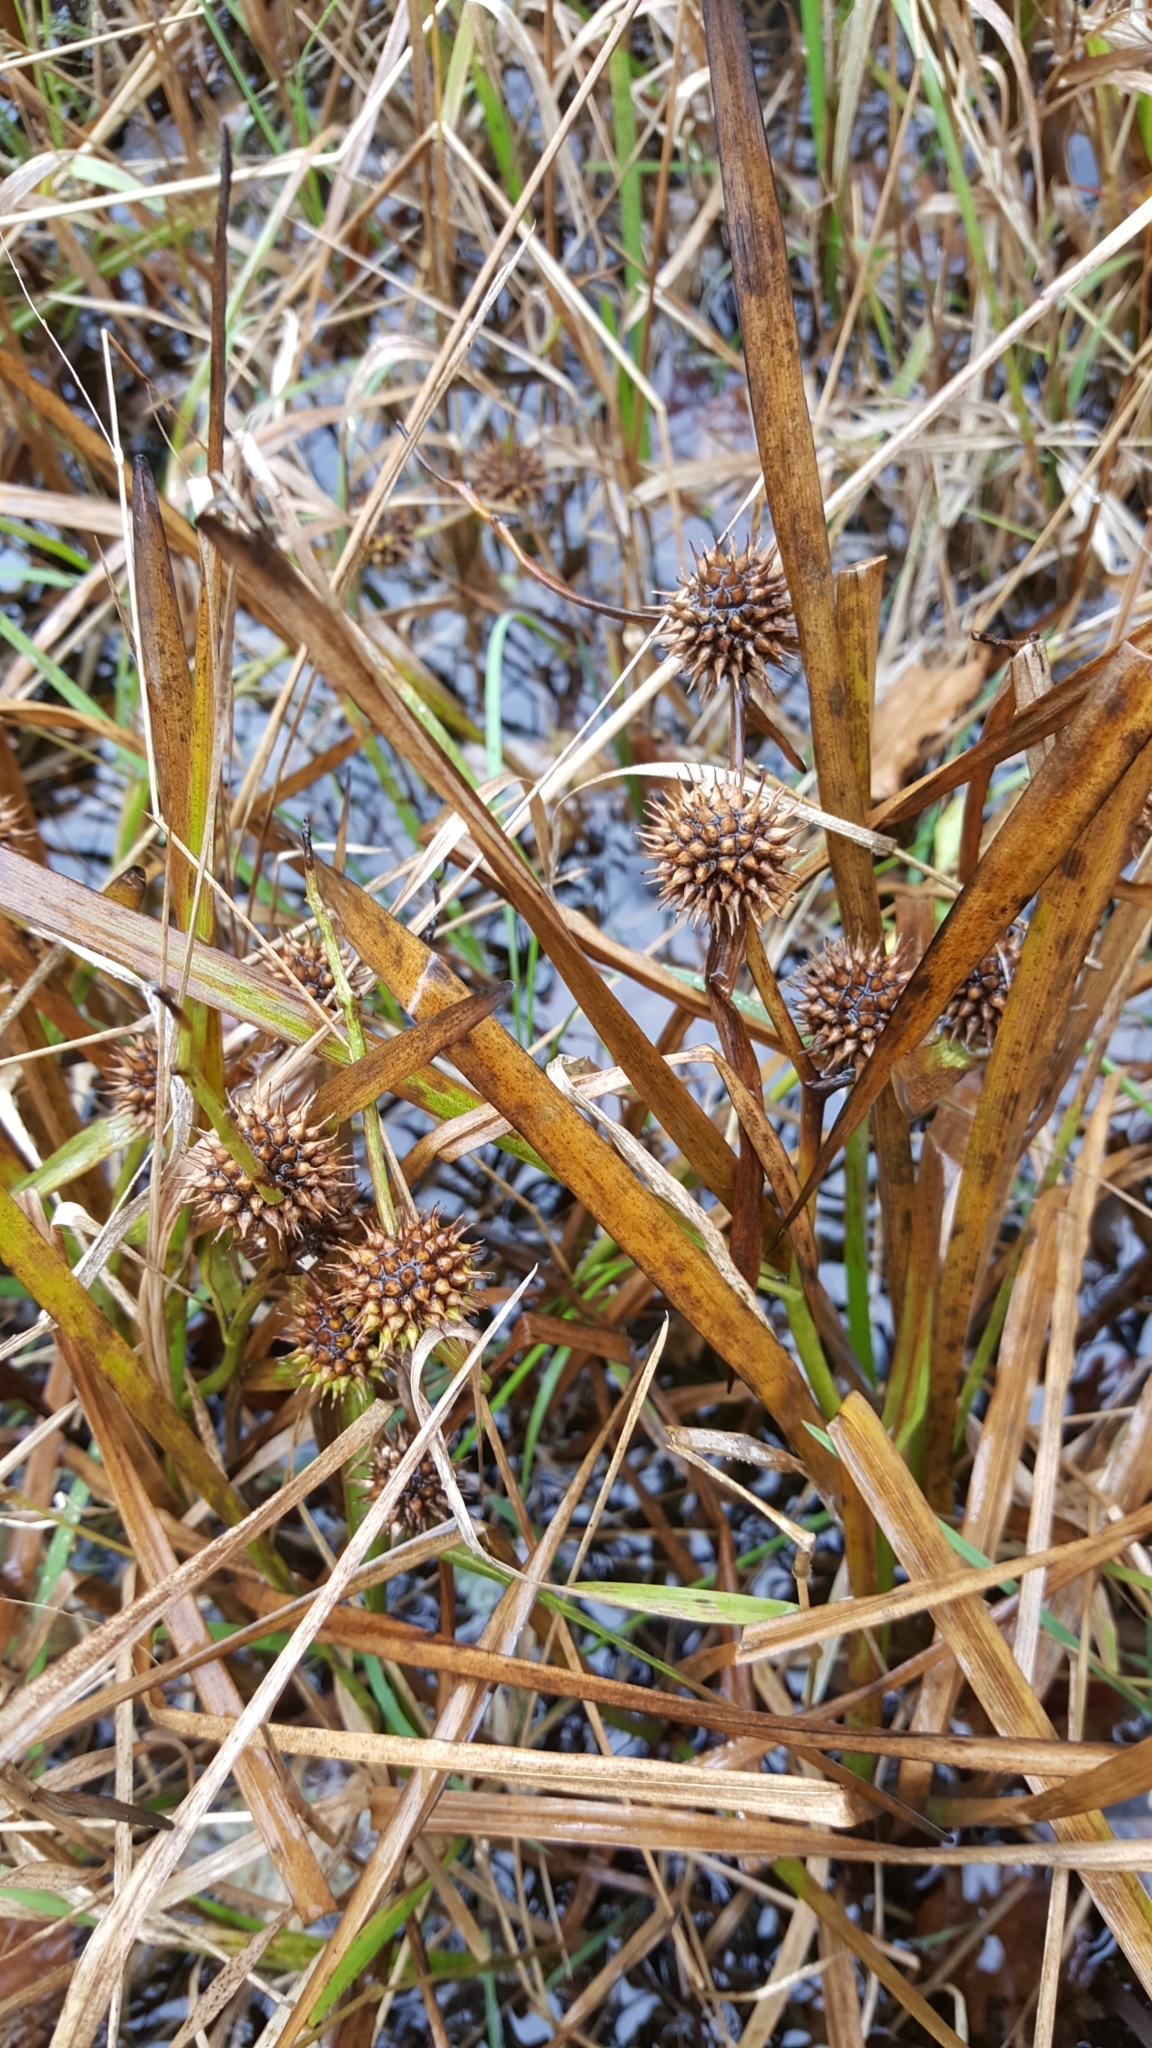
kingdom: Plantae
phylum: Tracheophyta
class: Liliopsida
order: Poales
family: Typhaceae
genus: Sparganium
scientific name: Sparganium americanum
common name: American burreed
